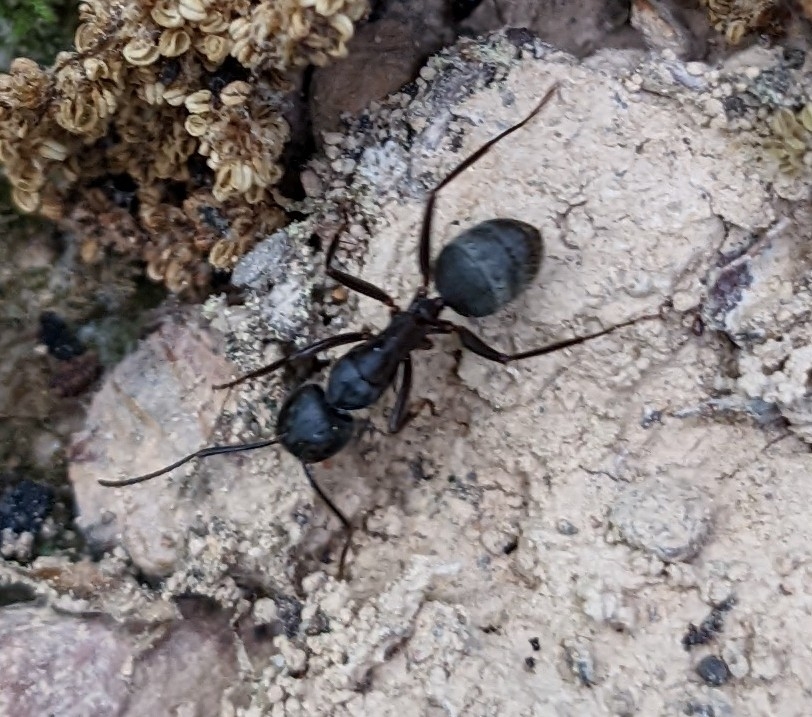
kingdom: Animalia
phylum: Arthropoda
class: Insecta
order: Hymenoptera
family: Formicidae
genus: Camponotus
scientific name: Camponotus pennsylvanicus
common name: Black carpenter ant
